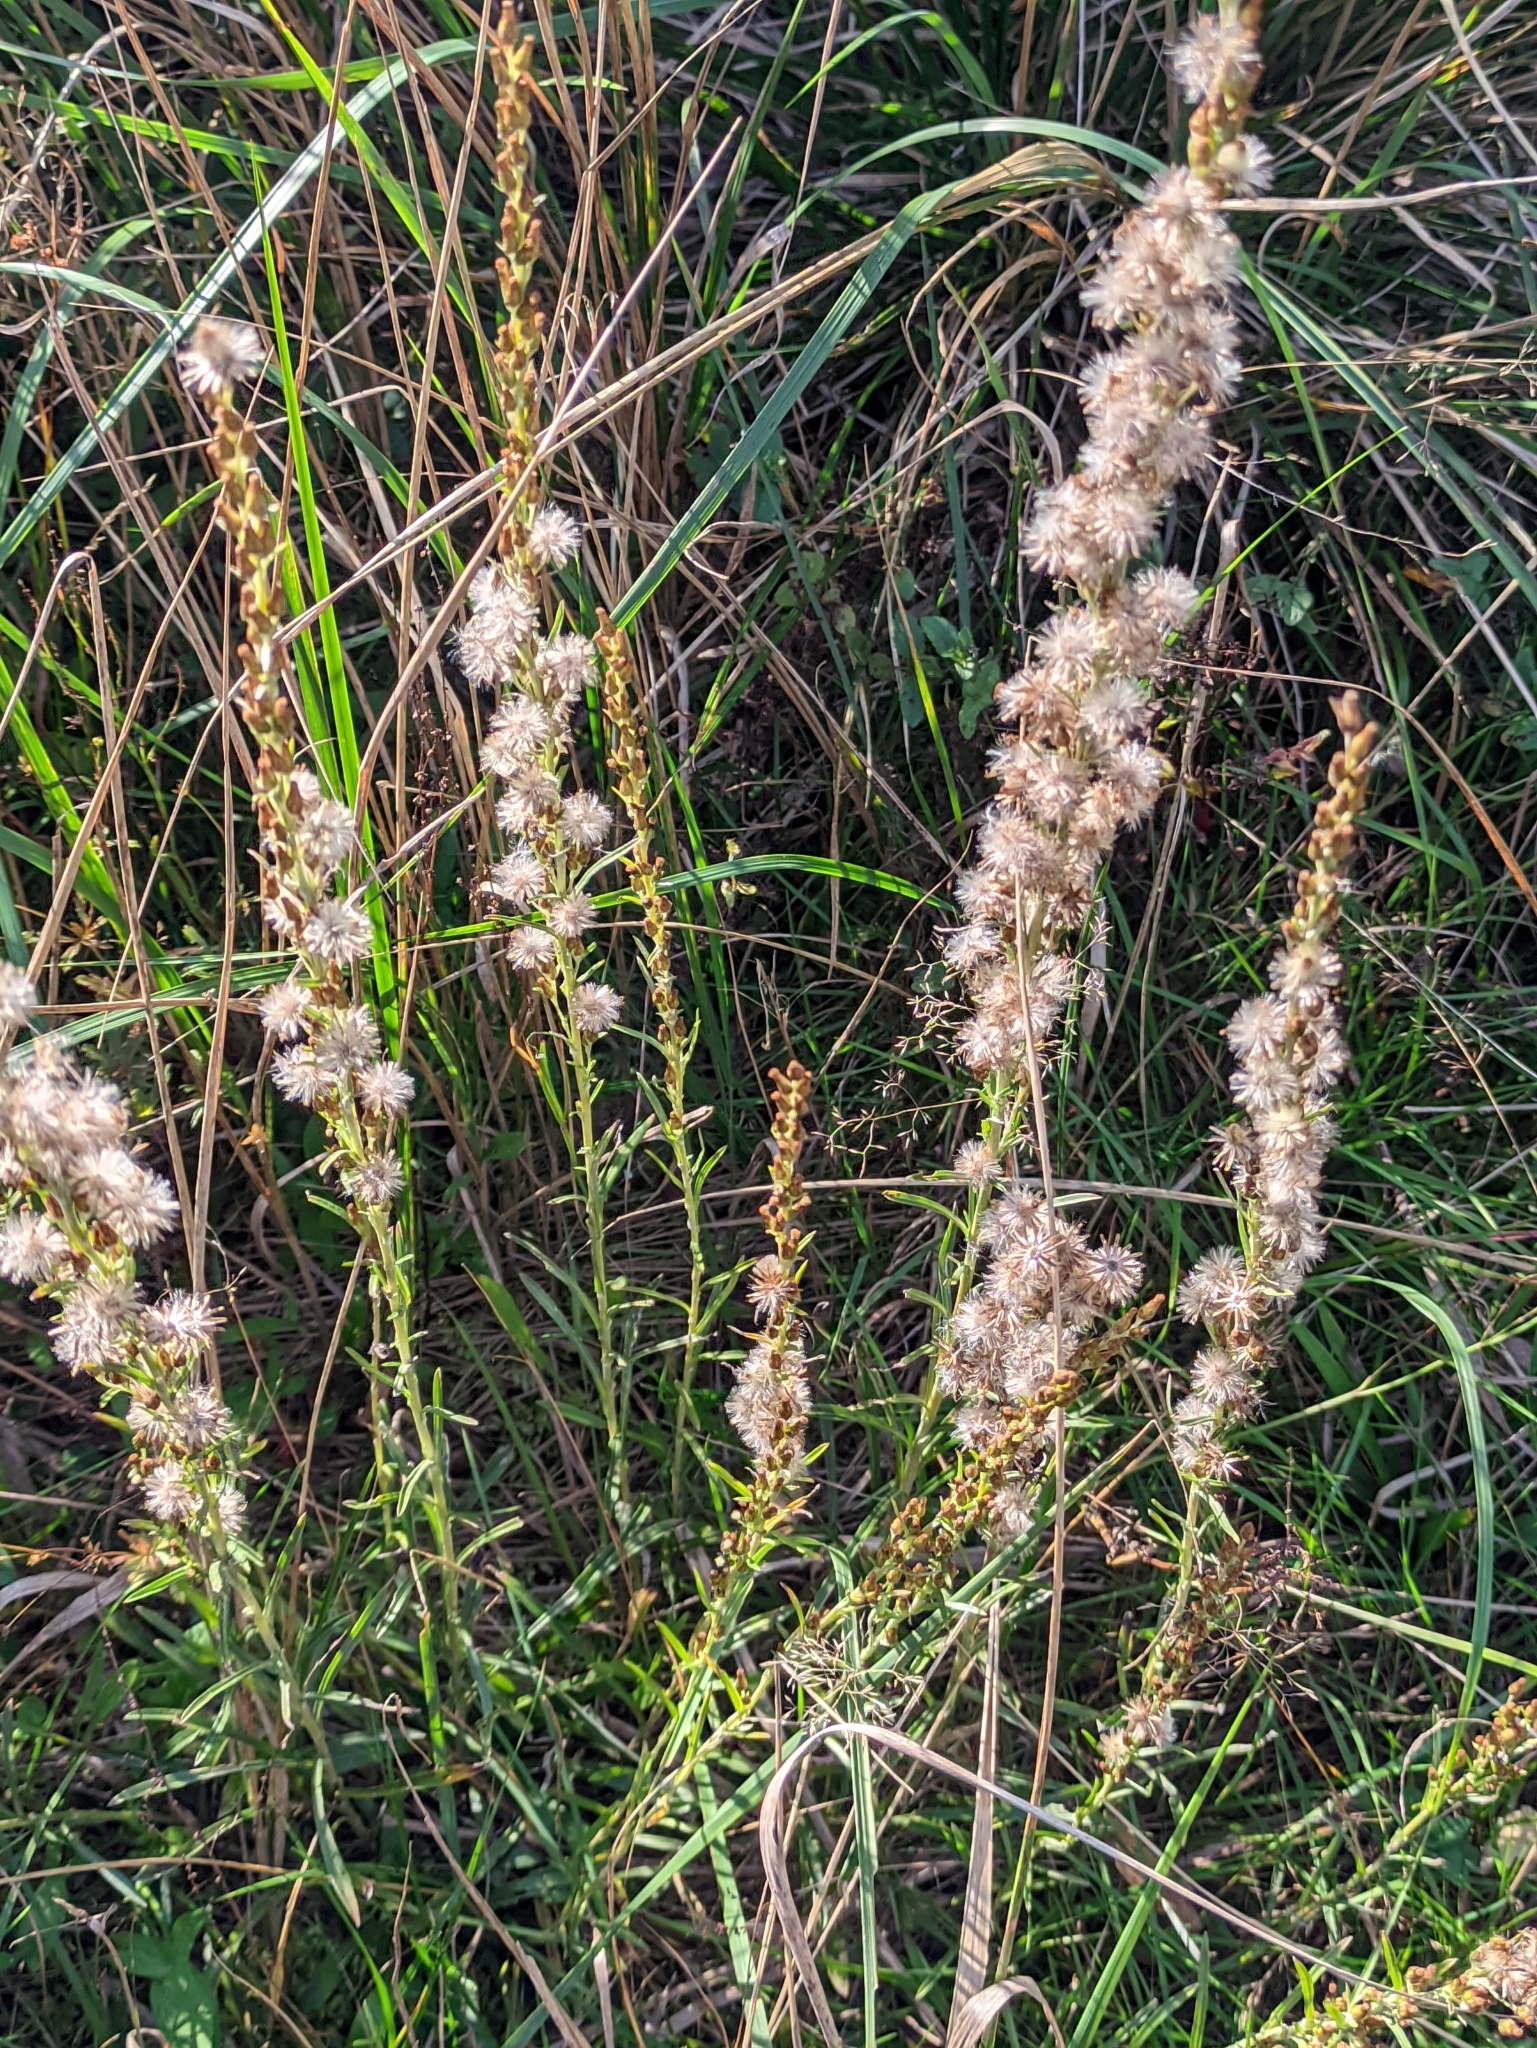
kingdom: Plantae
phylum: Tracheophyta
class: Magnoliopsida
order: Asterales
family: Asteraceae
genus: Omalotheca
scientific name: Omalotheca sylvatica
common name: Heath cudweed
